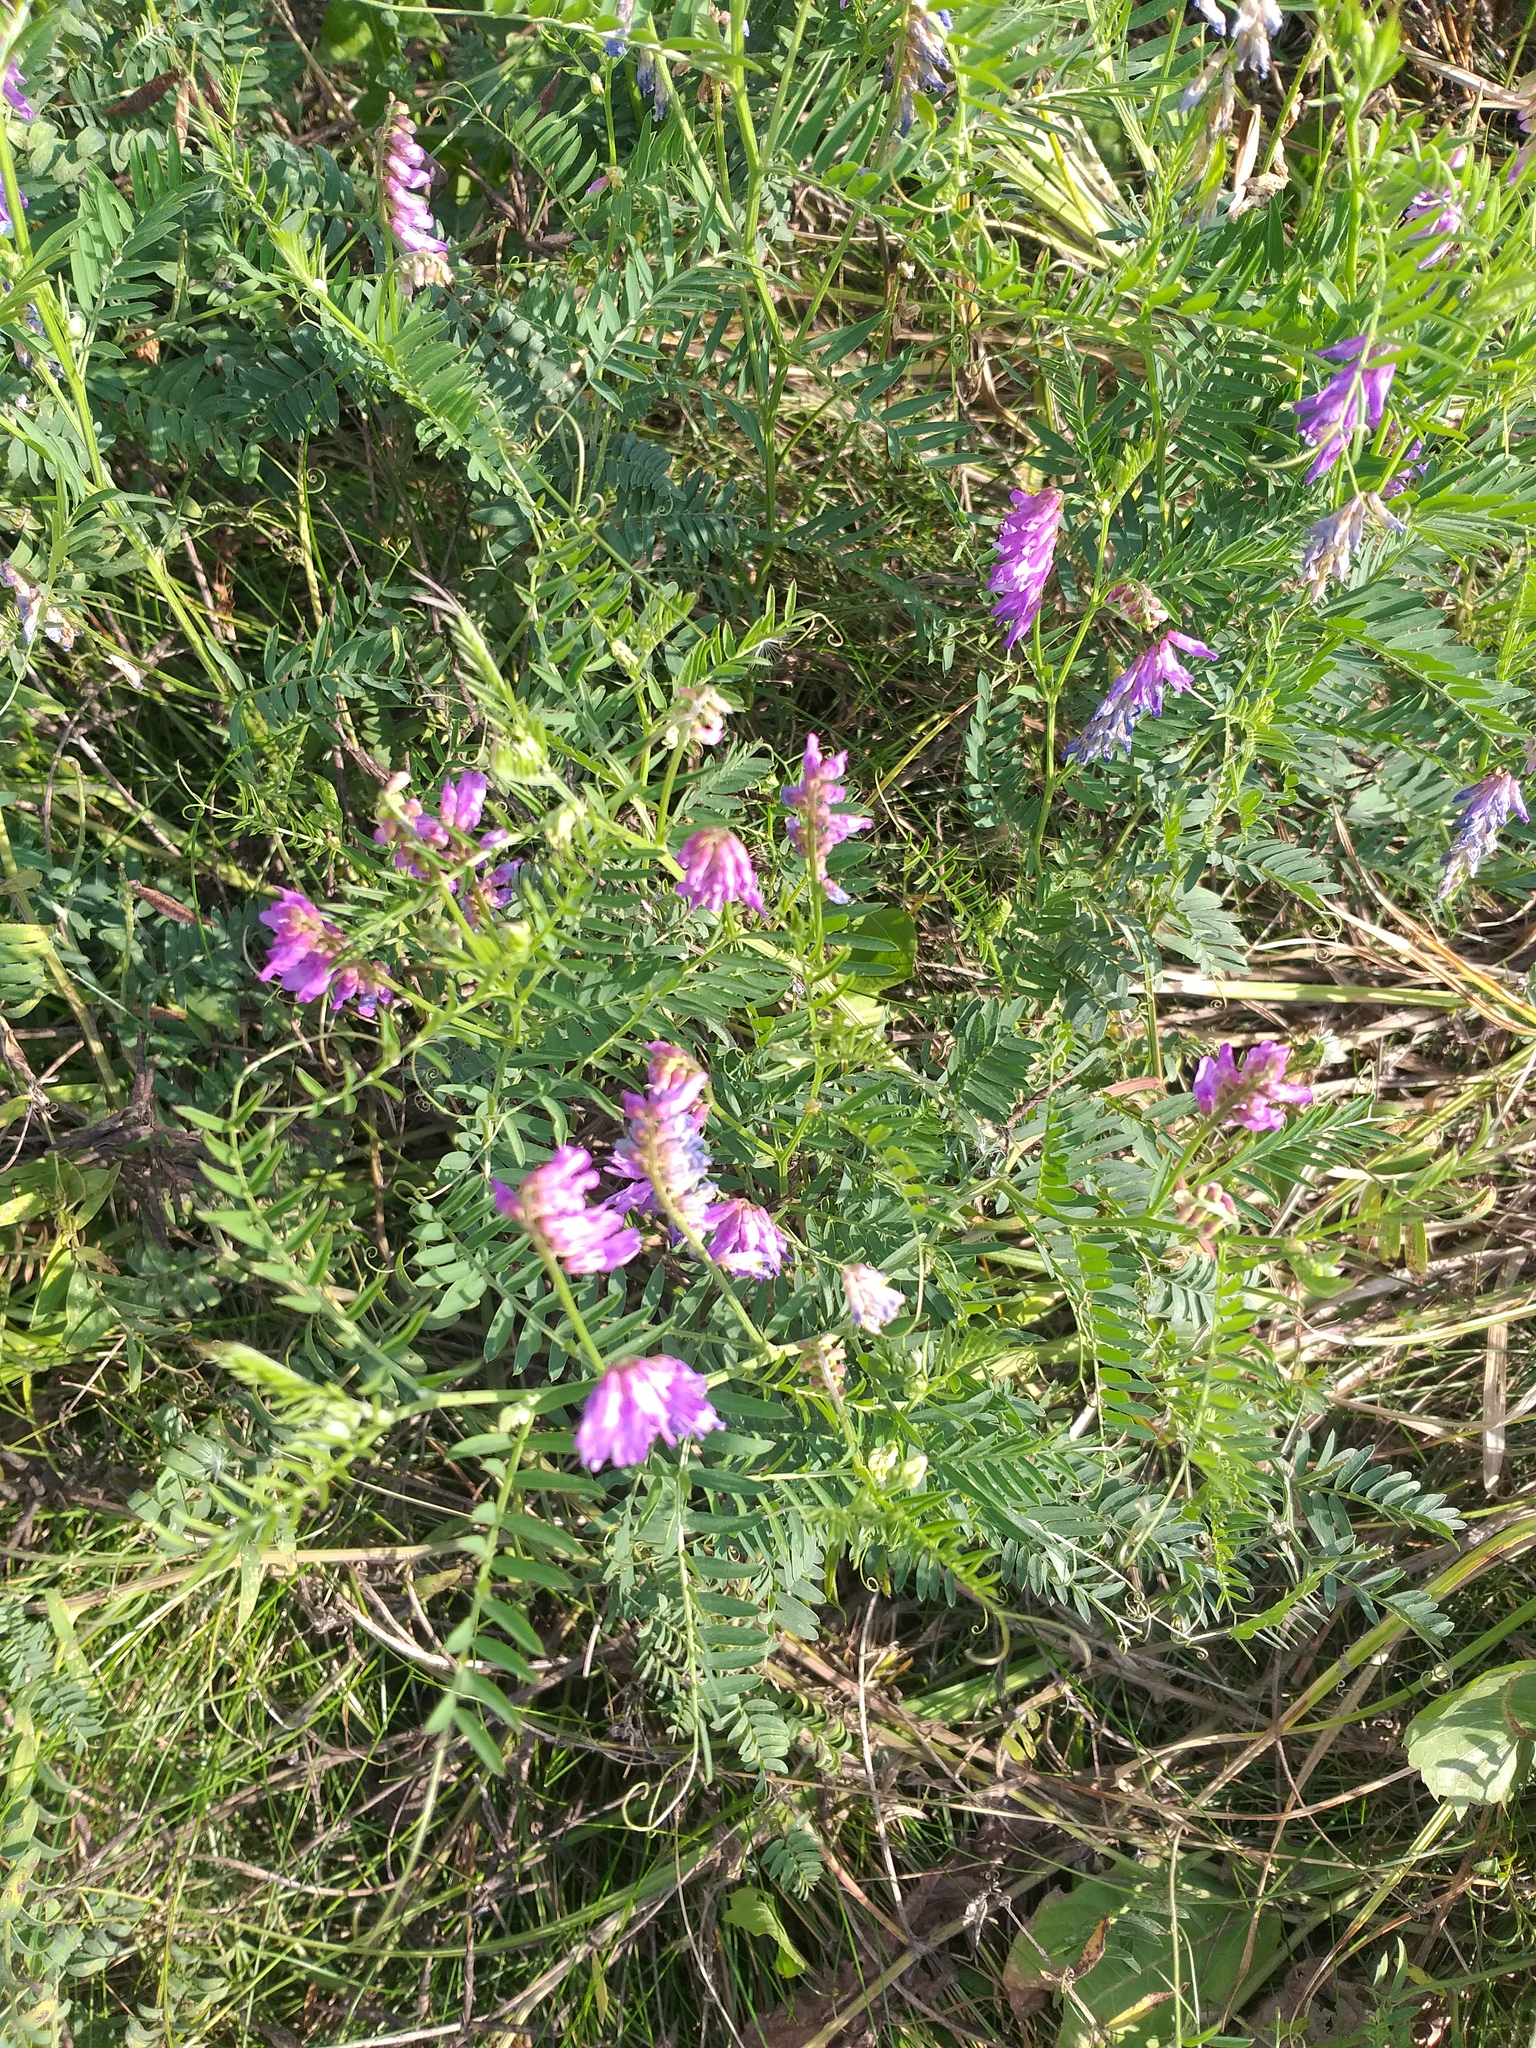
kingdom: Plantae
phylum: Tracheophyta
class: Magnoliopsida
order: Fabales
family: Fabaceae
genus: Vicia
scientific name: Vicia cracca
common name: Bird vetch
